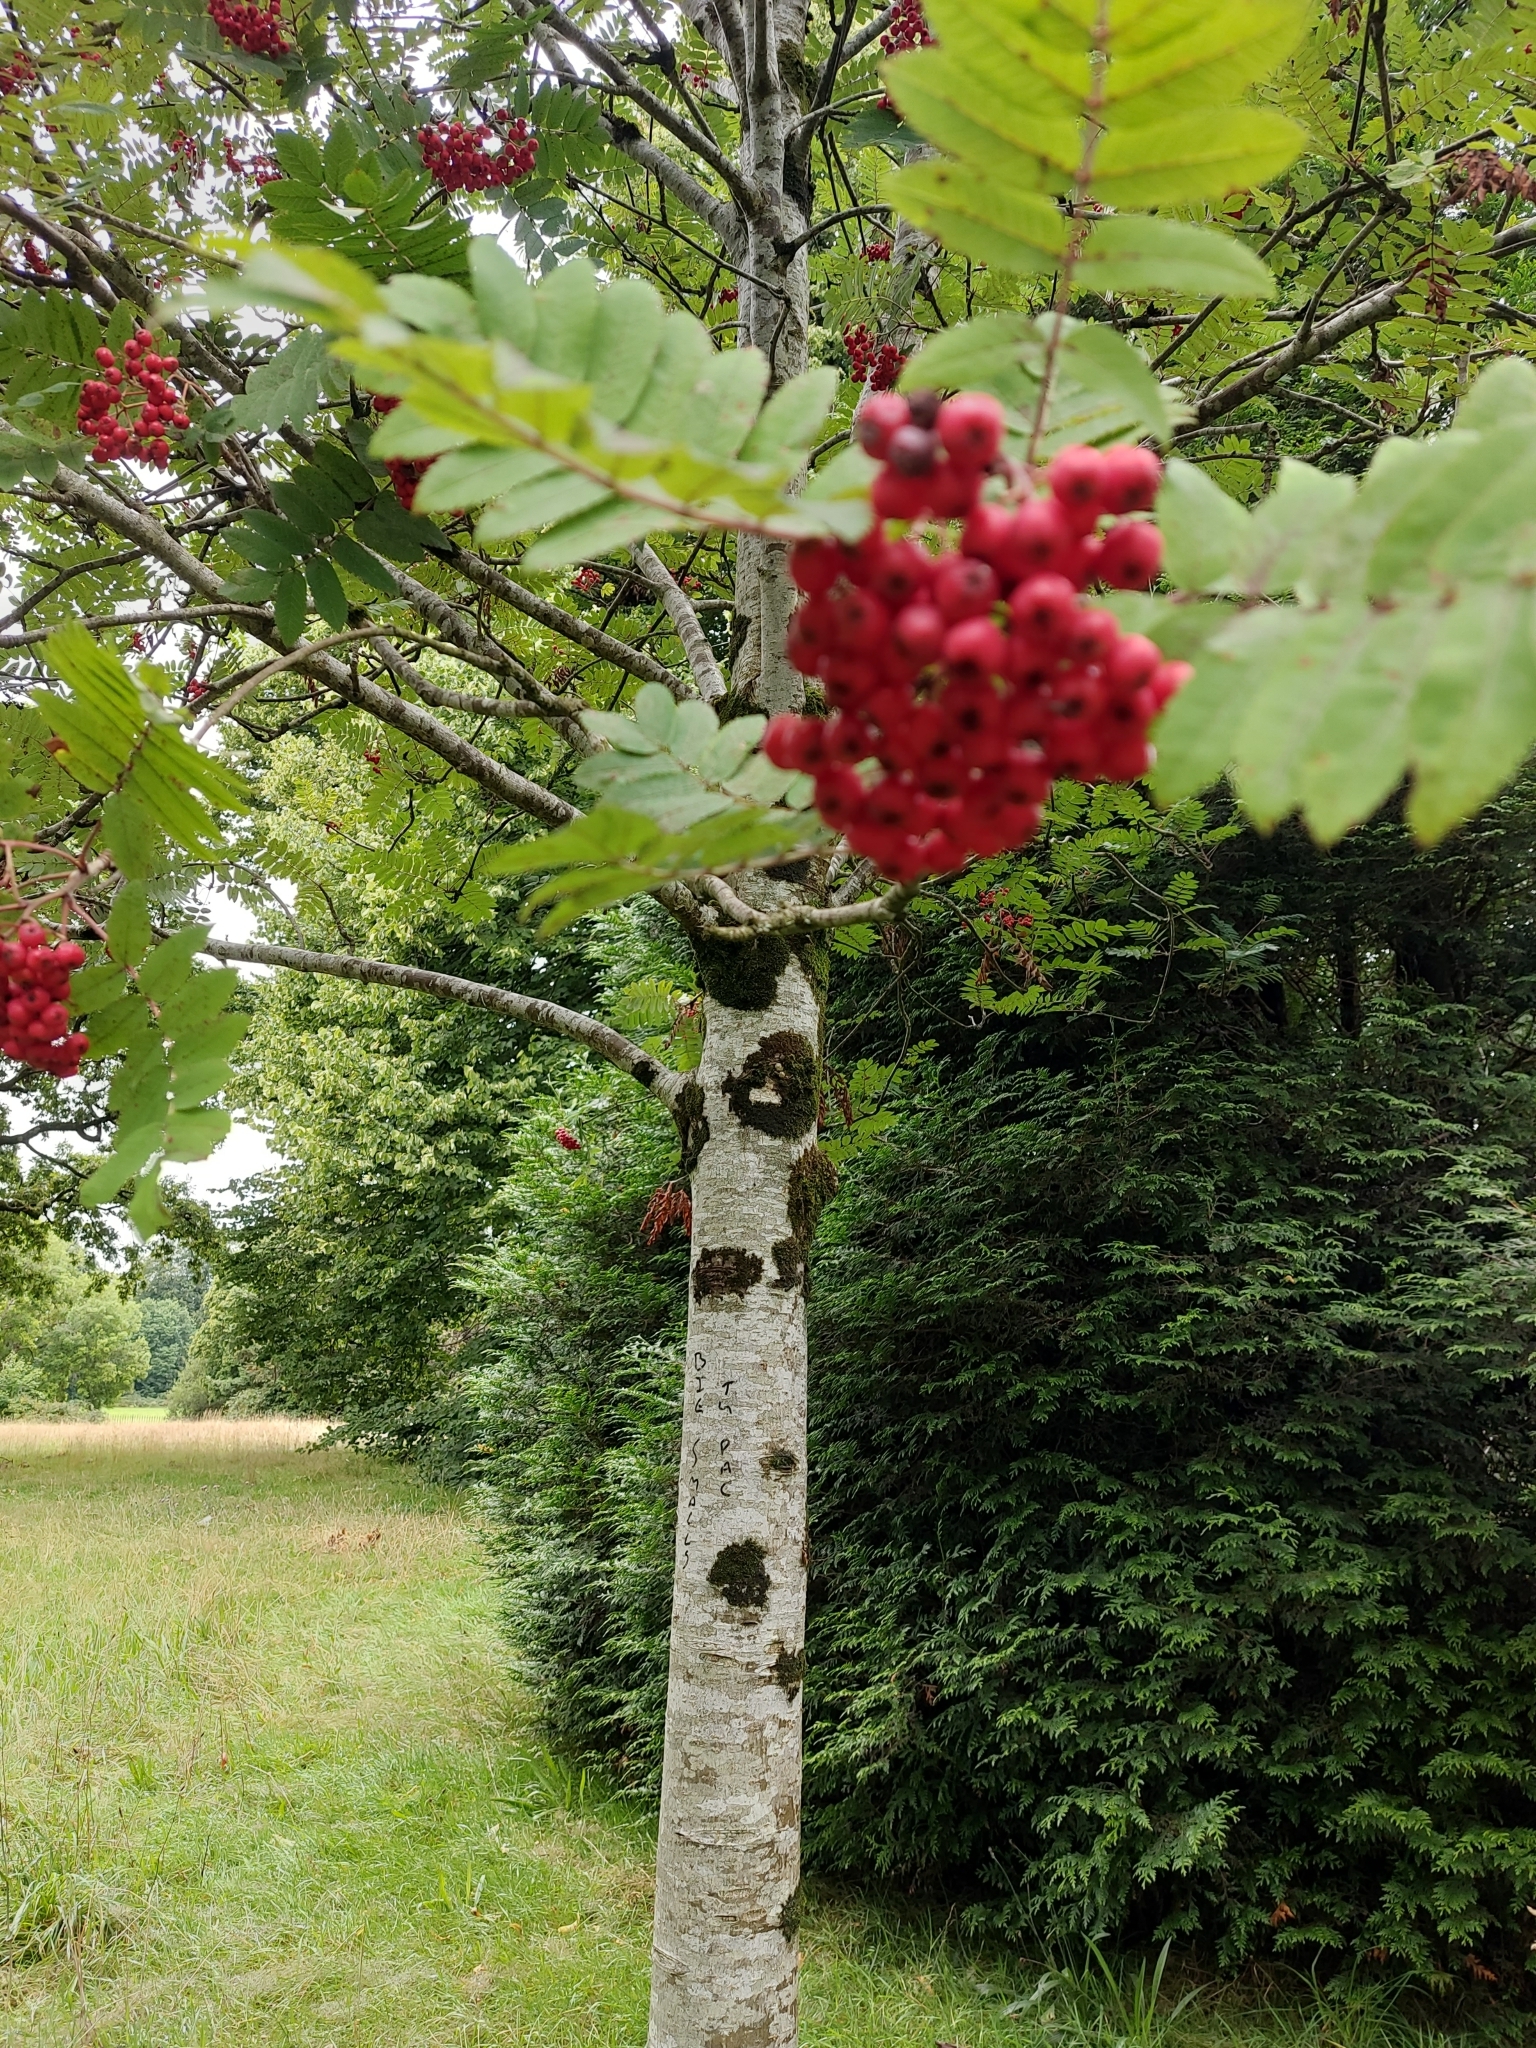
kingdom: Plantae
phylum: Tracheophyta
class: Magnoliopsida
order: Rosales
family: Rosaceae
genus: Sorbus
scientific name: Sorbus aucuparia
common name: Rowan
